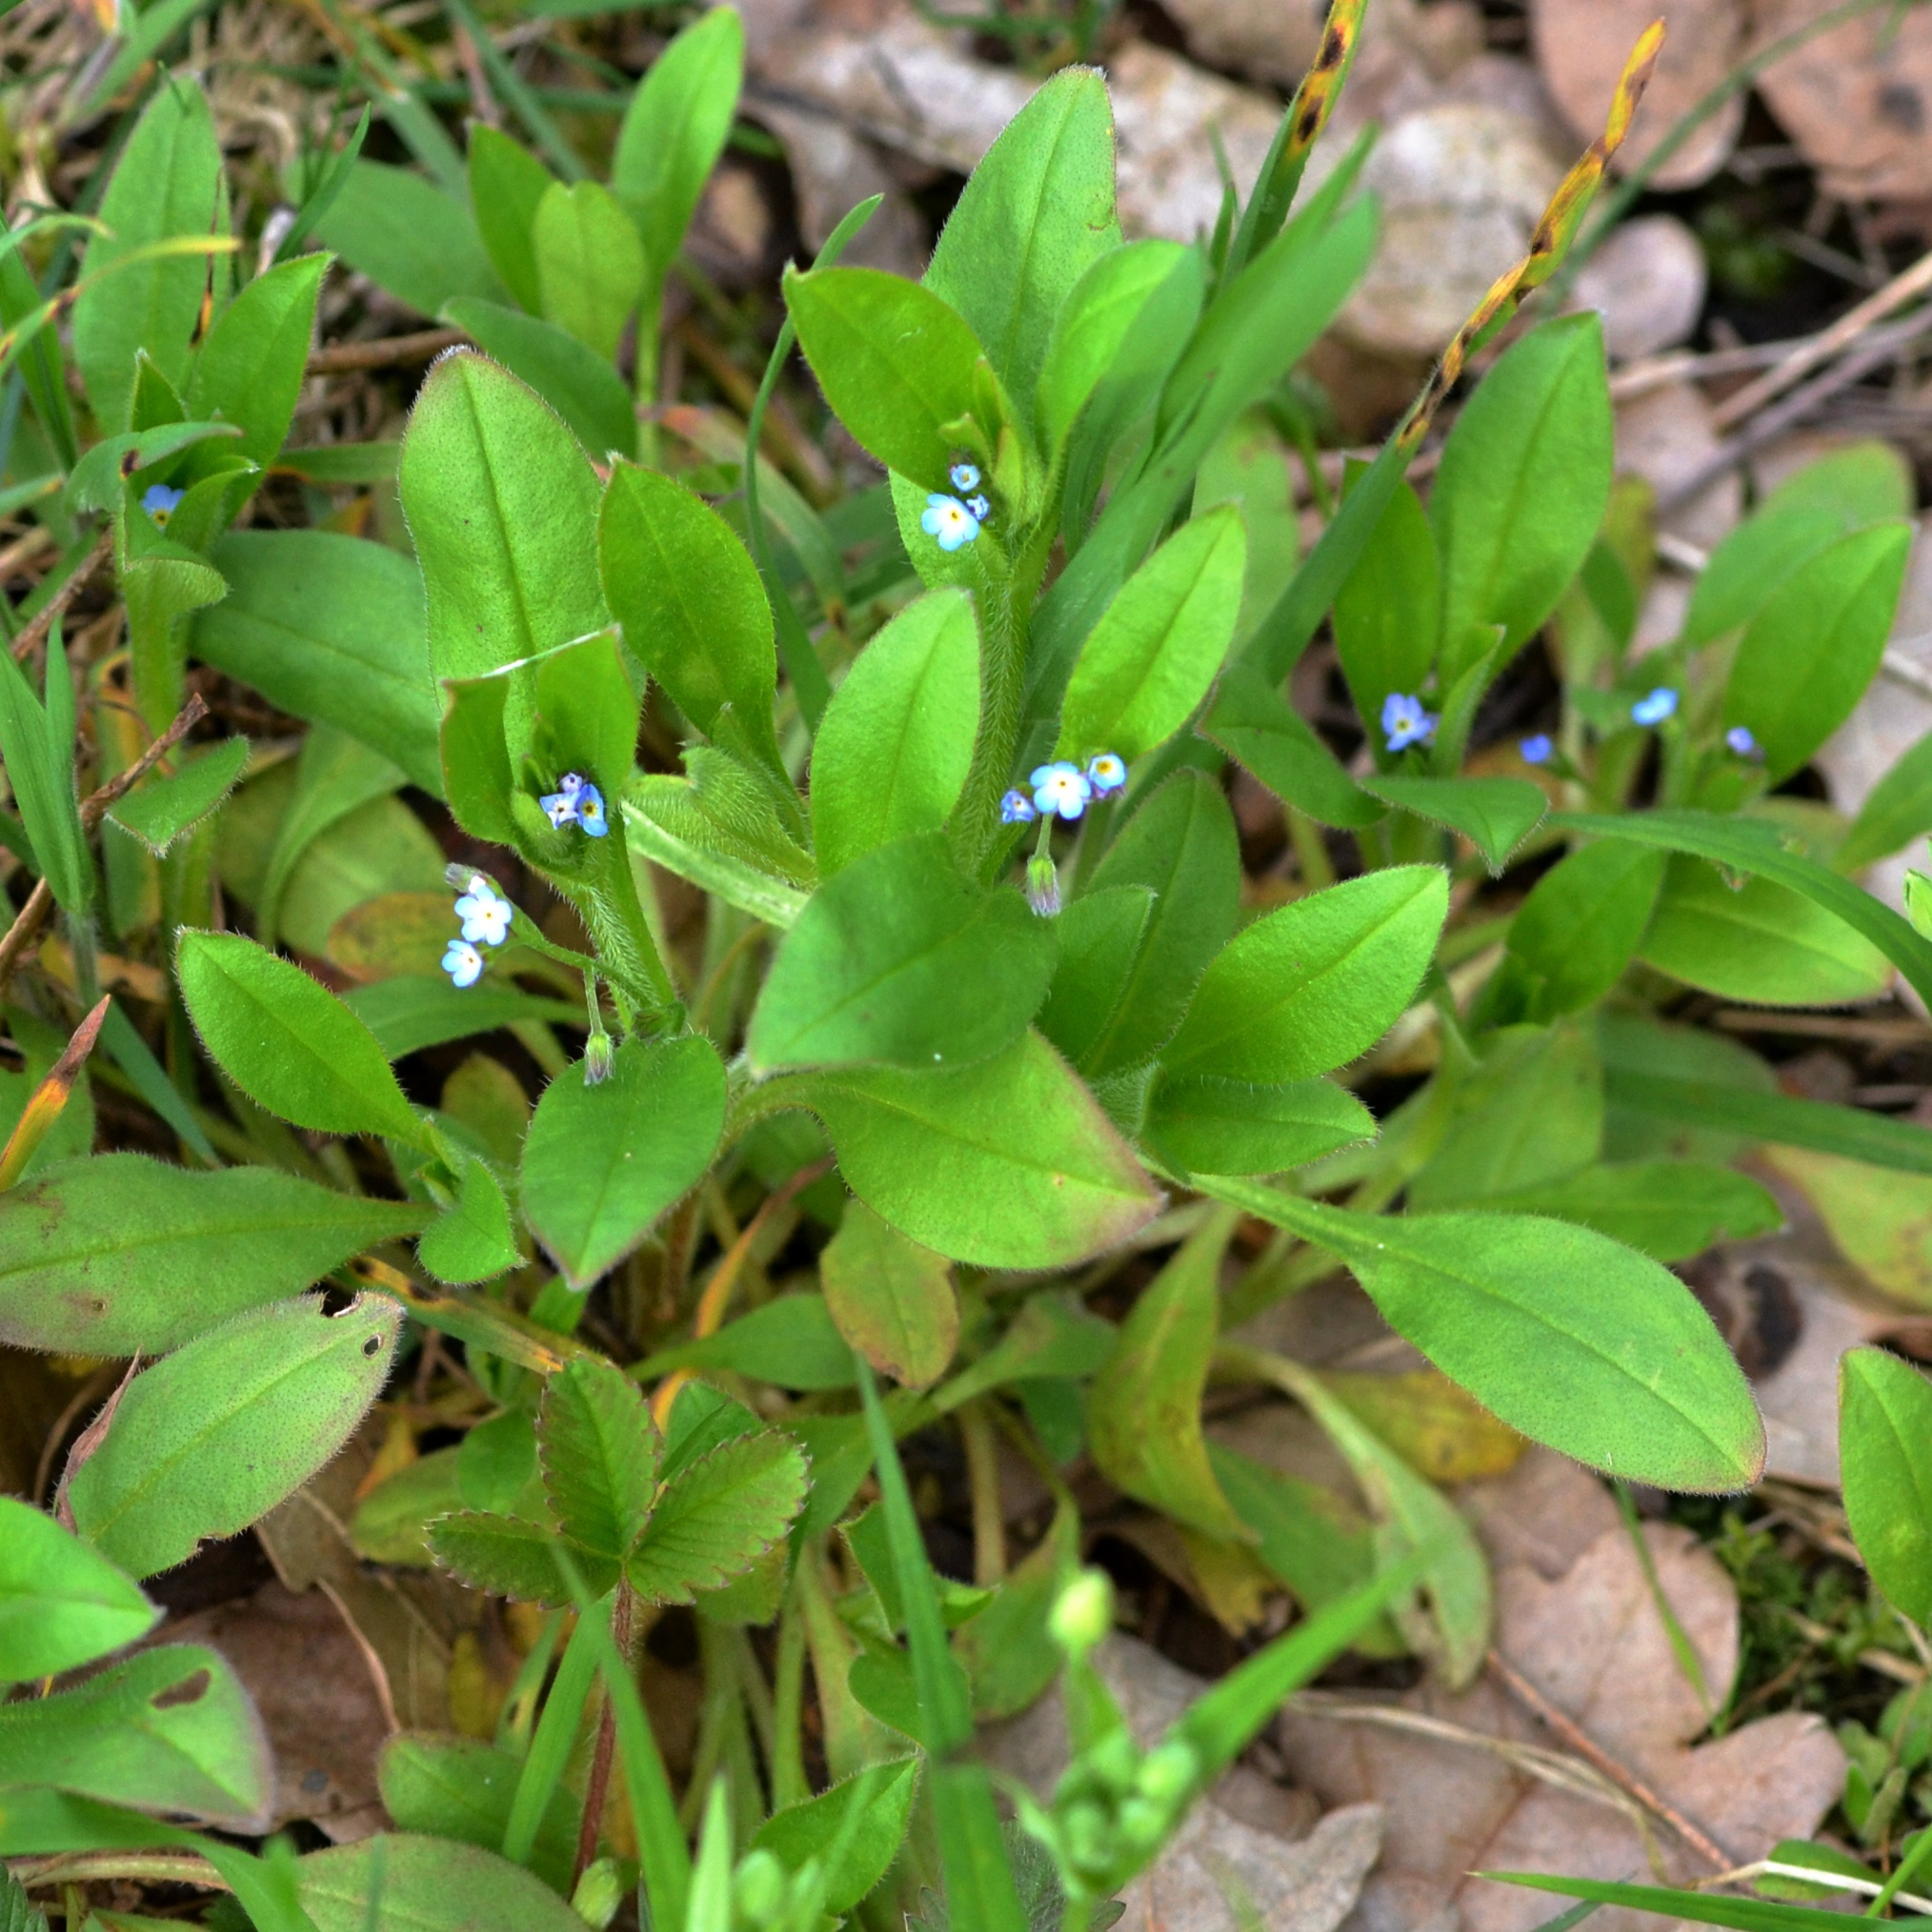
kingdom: Plantae
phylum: Tracheophyta
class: Magnoliopsida
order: Boraginales
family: Boraginaceae
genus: Myosotis
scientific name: Myosotis sparsiflora
